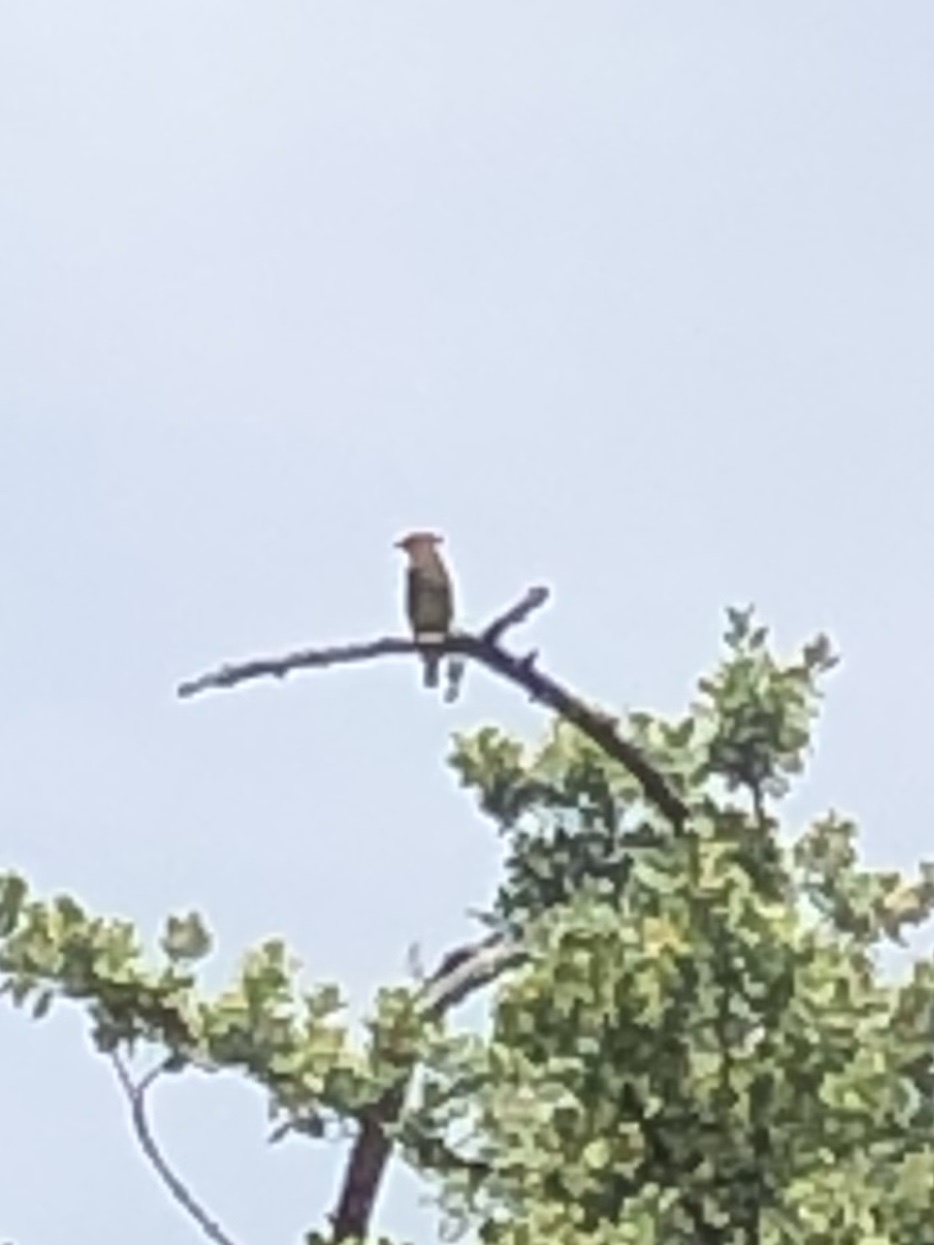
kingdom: Animalia
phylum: Chordata
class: Aves
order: Passeriformes
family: Bombycillidae
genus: Bombycilla
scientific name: Bombycilla cedrorum
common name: Cedar waxwing
